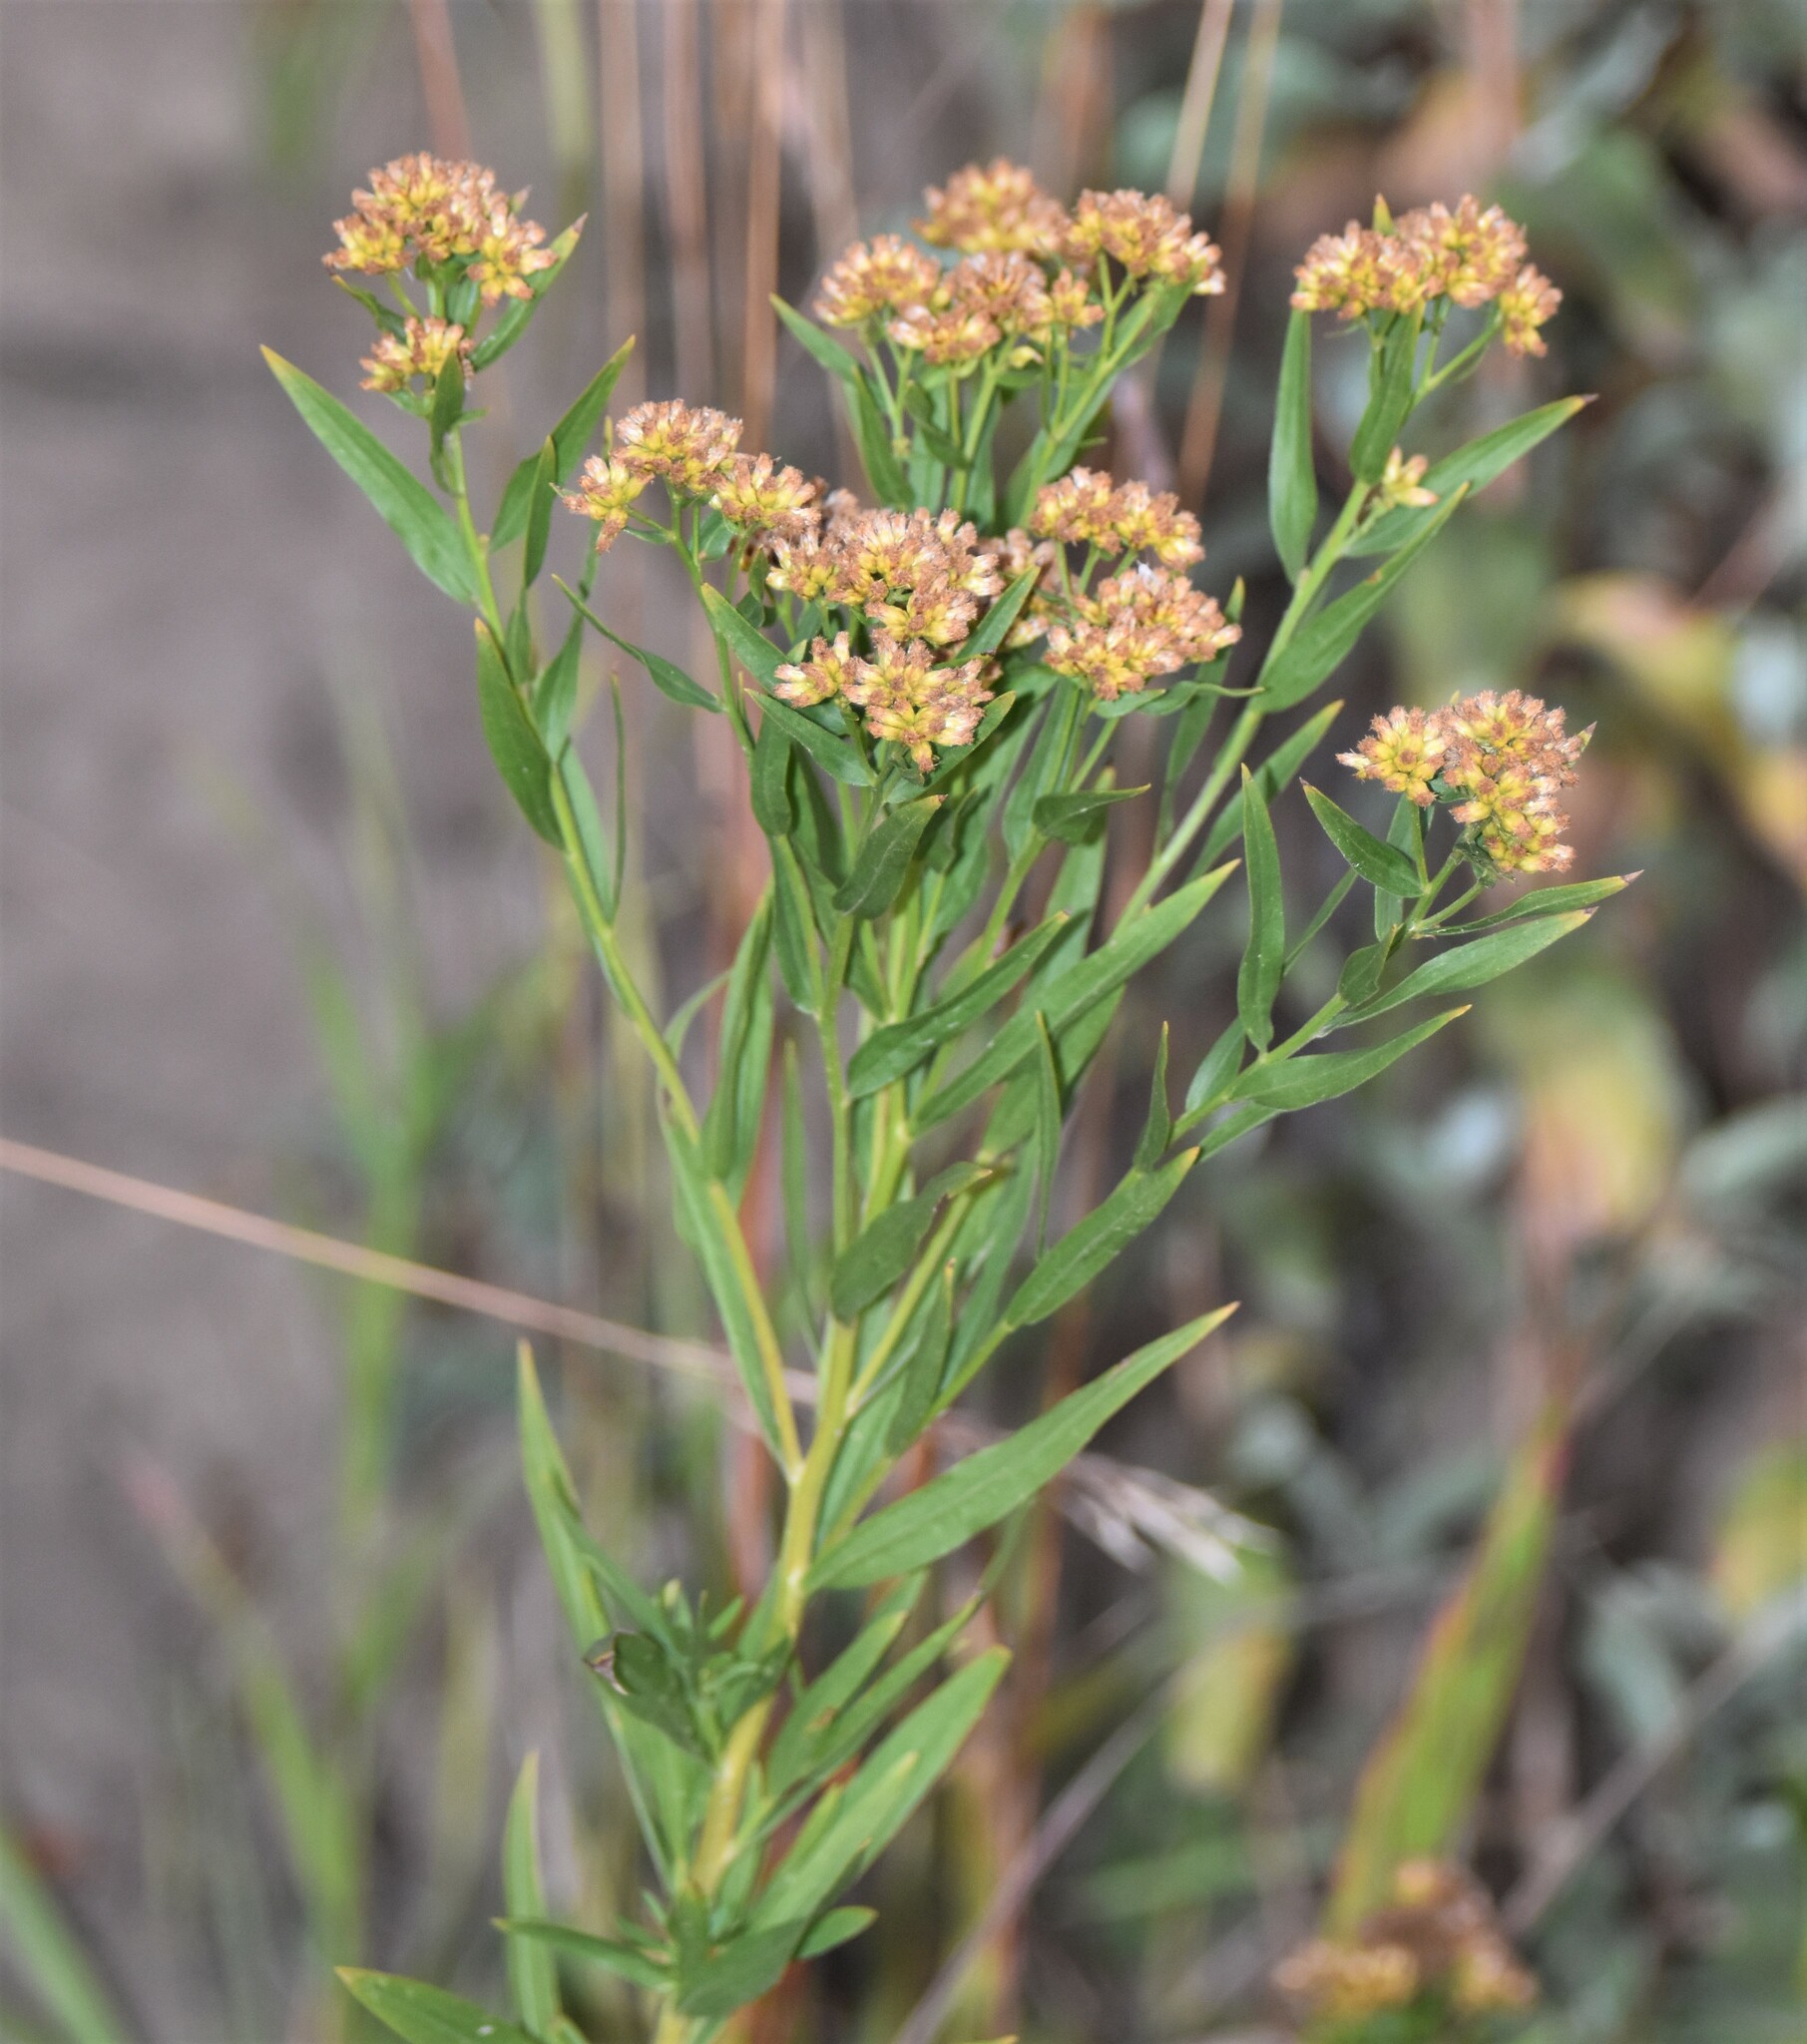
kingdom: Plantae
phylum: Tracheophyta
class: Magnoliopsida
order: Asterales
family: Asteraceae
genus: Euthamia
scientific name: Euthamia graminifolia
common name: Common goldentop
